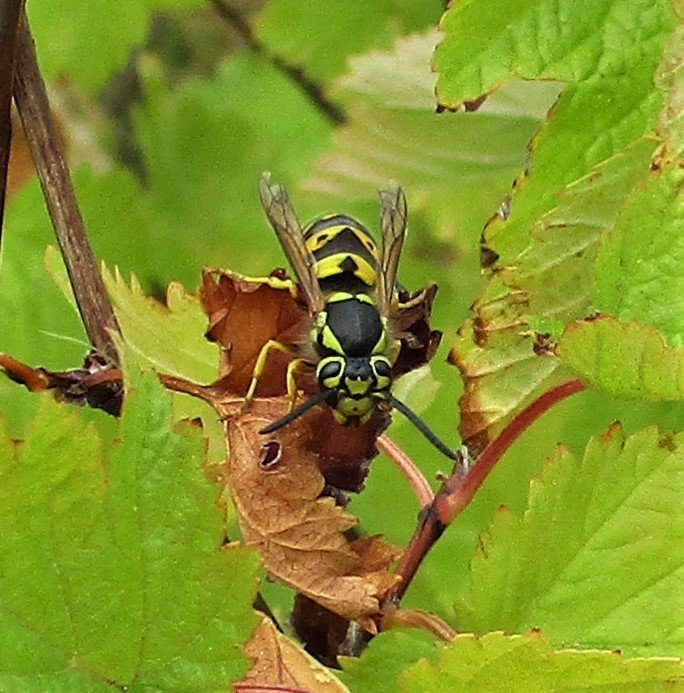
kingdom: Animalia
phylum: Arthropoda
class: Insecta
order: Hymenoptera
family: Vespidae
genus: Vespula
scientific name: Vespula pensylvanica
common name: Western yellowjacket
